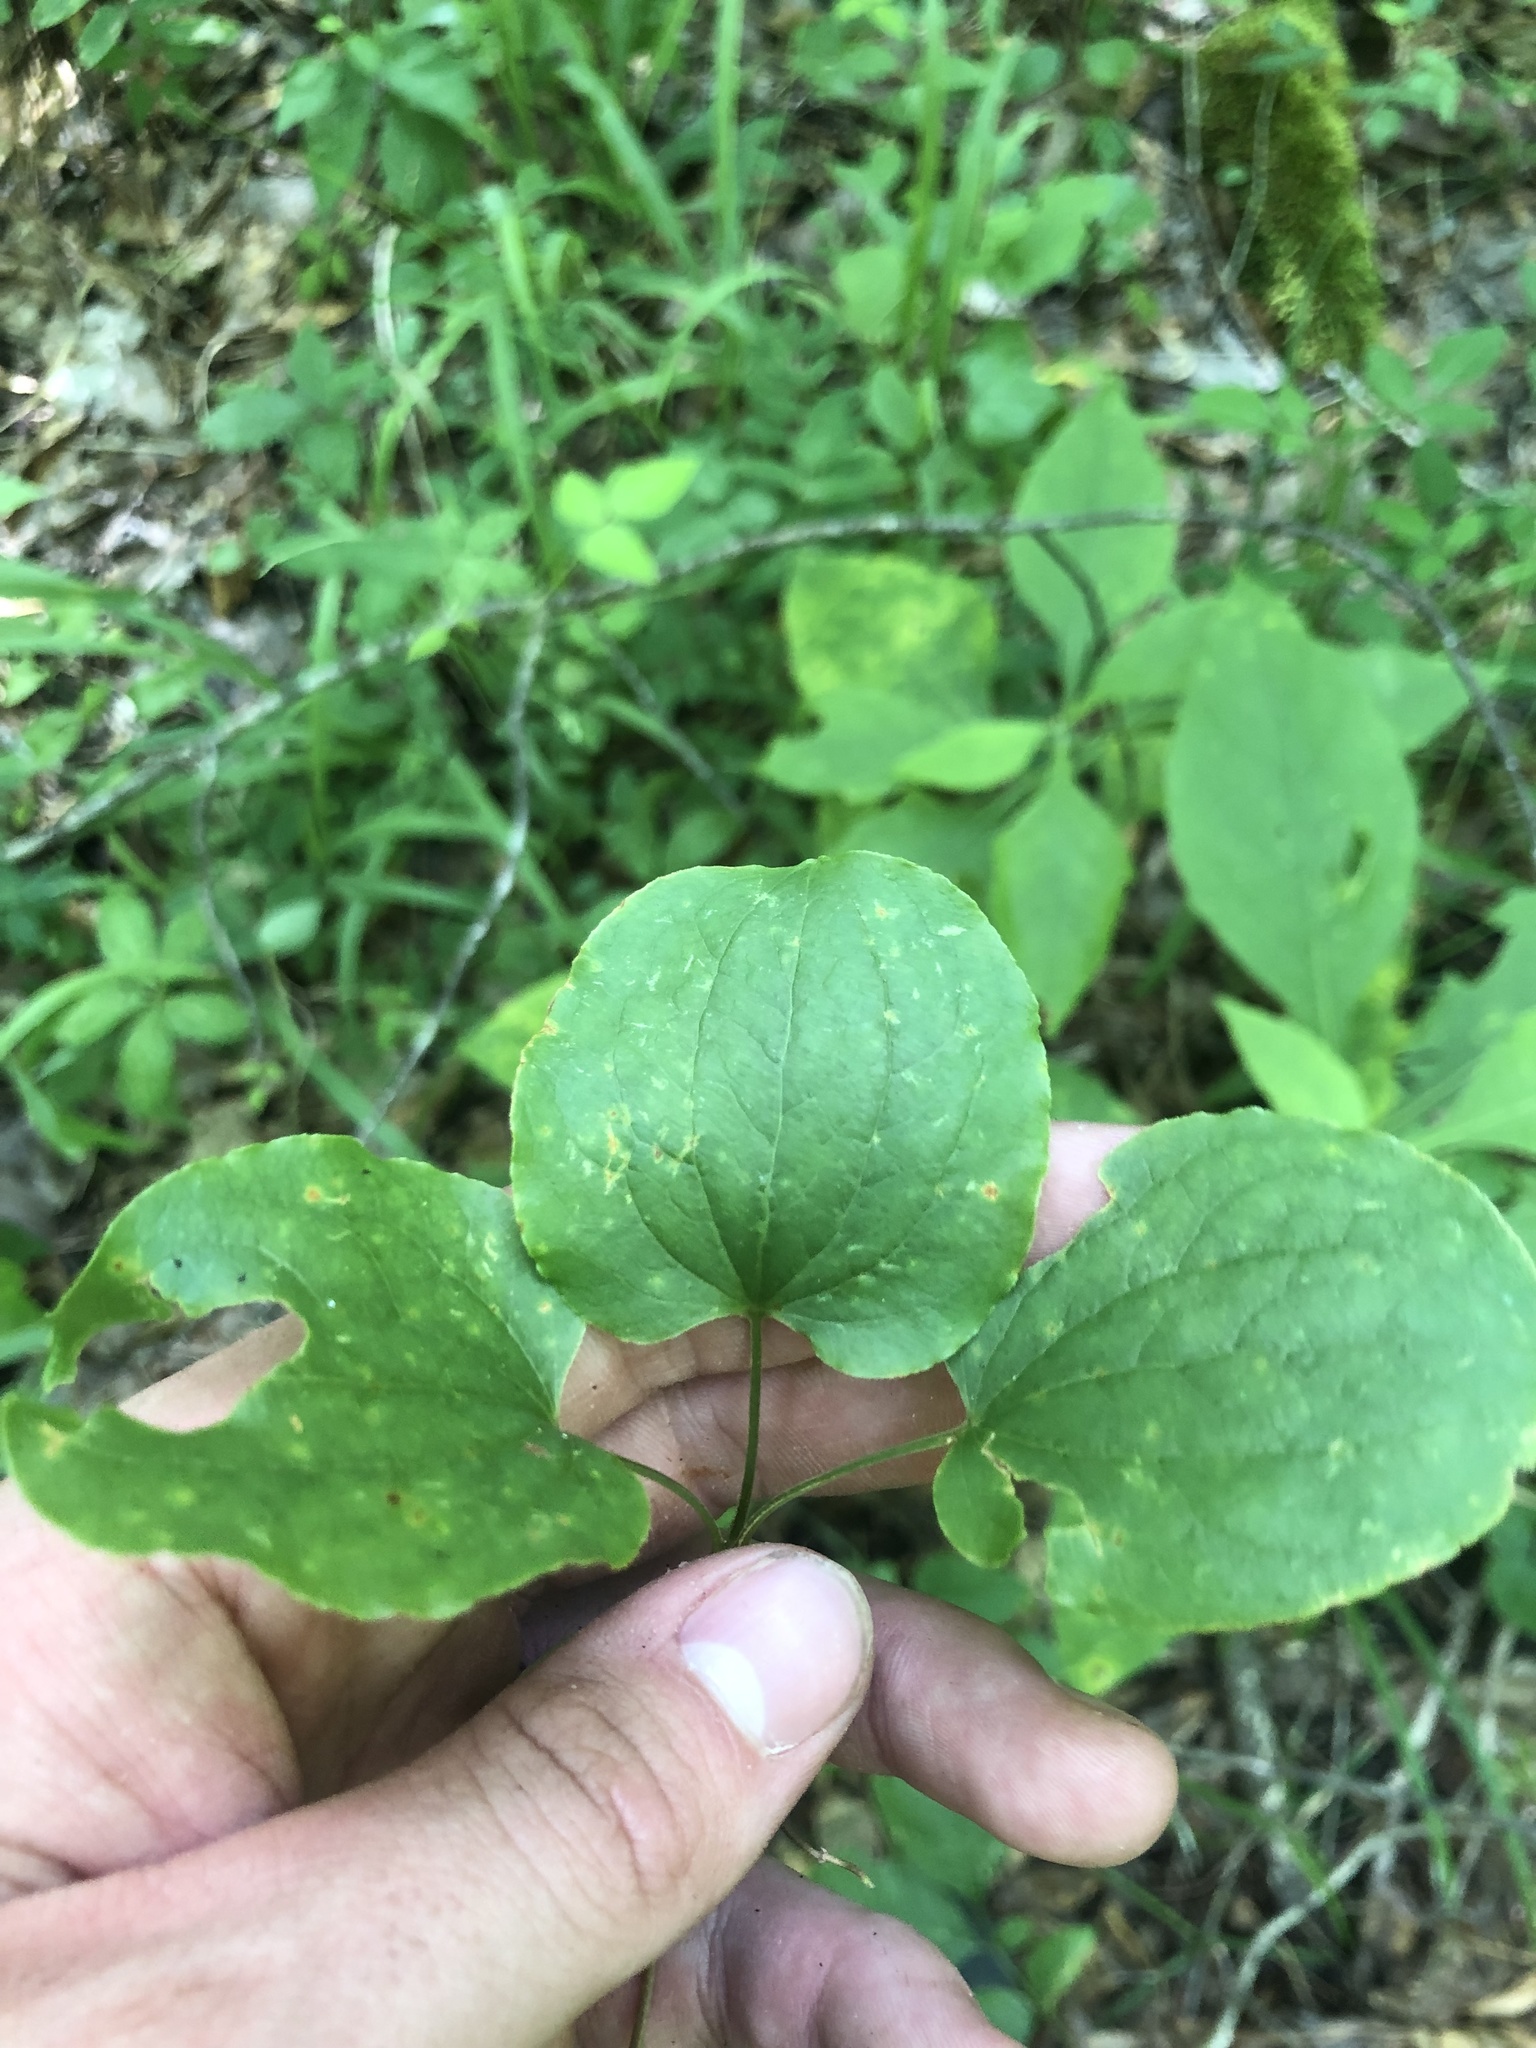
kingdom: Plantae
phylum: Tracheophyta
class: Liliopsida
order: Liliales
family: Smilacaceae
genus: Smilax
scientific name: Smilax lasioneura
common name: Blue ridge carrionflower
